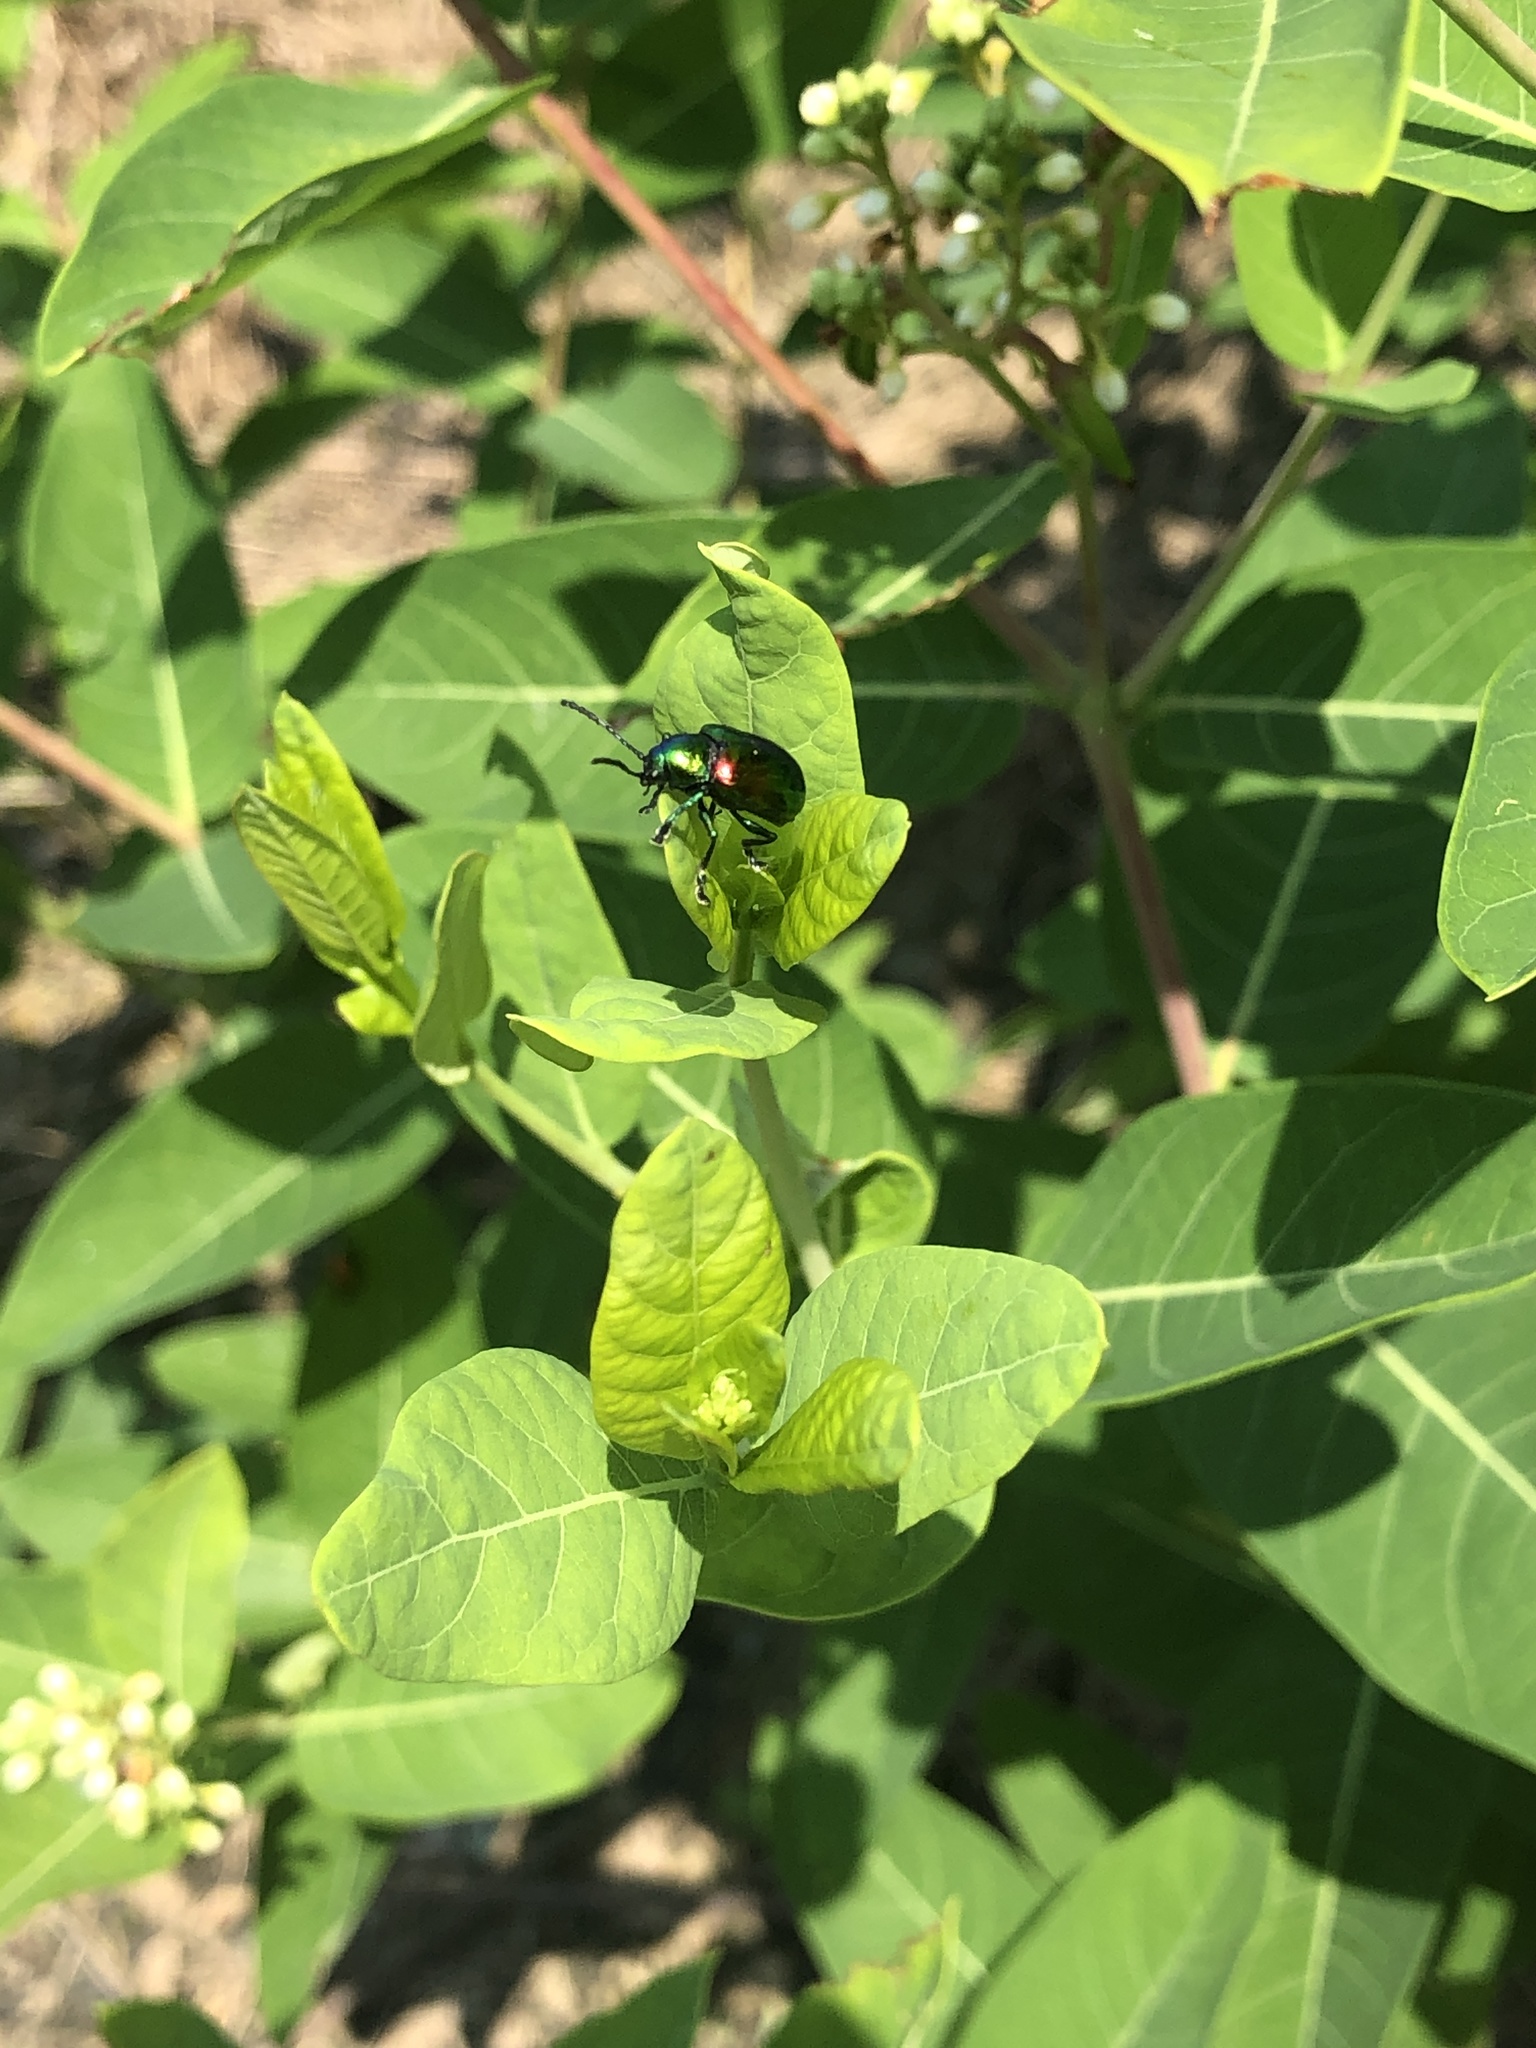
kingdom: Animalia
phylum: Arthropoda
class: Insecta
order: Coleoptera
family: Chrysomelidae
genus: Chrysochus
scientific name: Chrysochus auratus
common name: Dogbane leaf beetle
